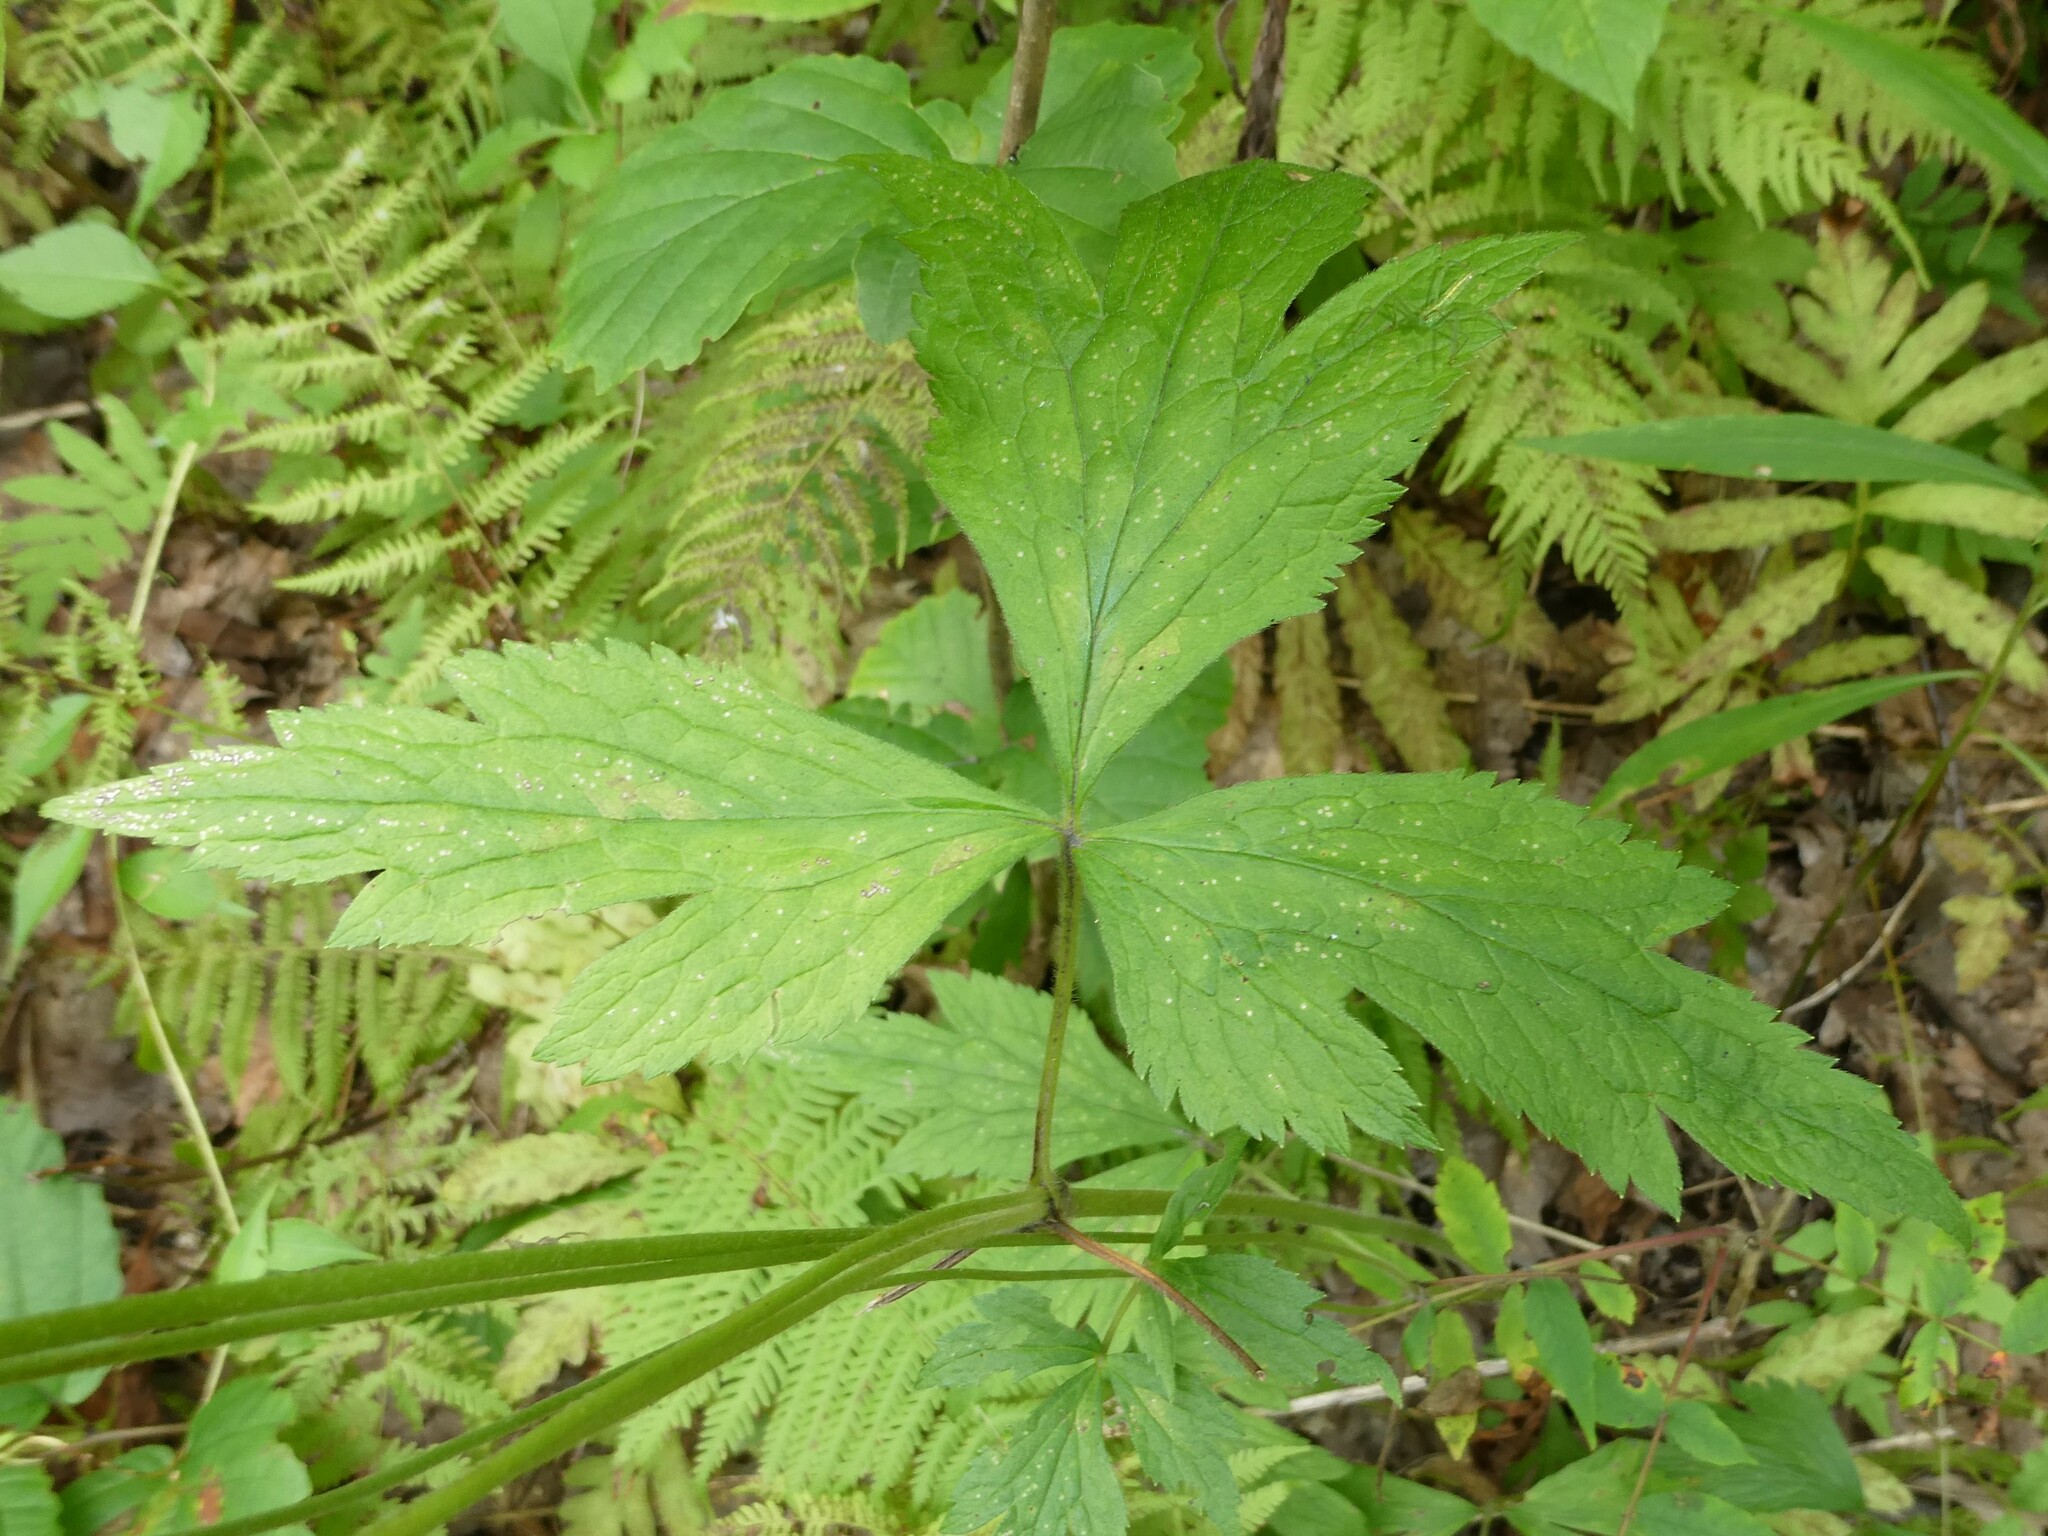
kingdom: Plantae
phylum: Tracheophyta
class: Magnoliopsida
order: Ranunculales
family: Ranunculaceae
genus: Anemone
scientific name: Anemone virginiana
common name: Tall anemone
